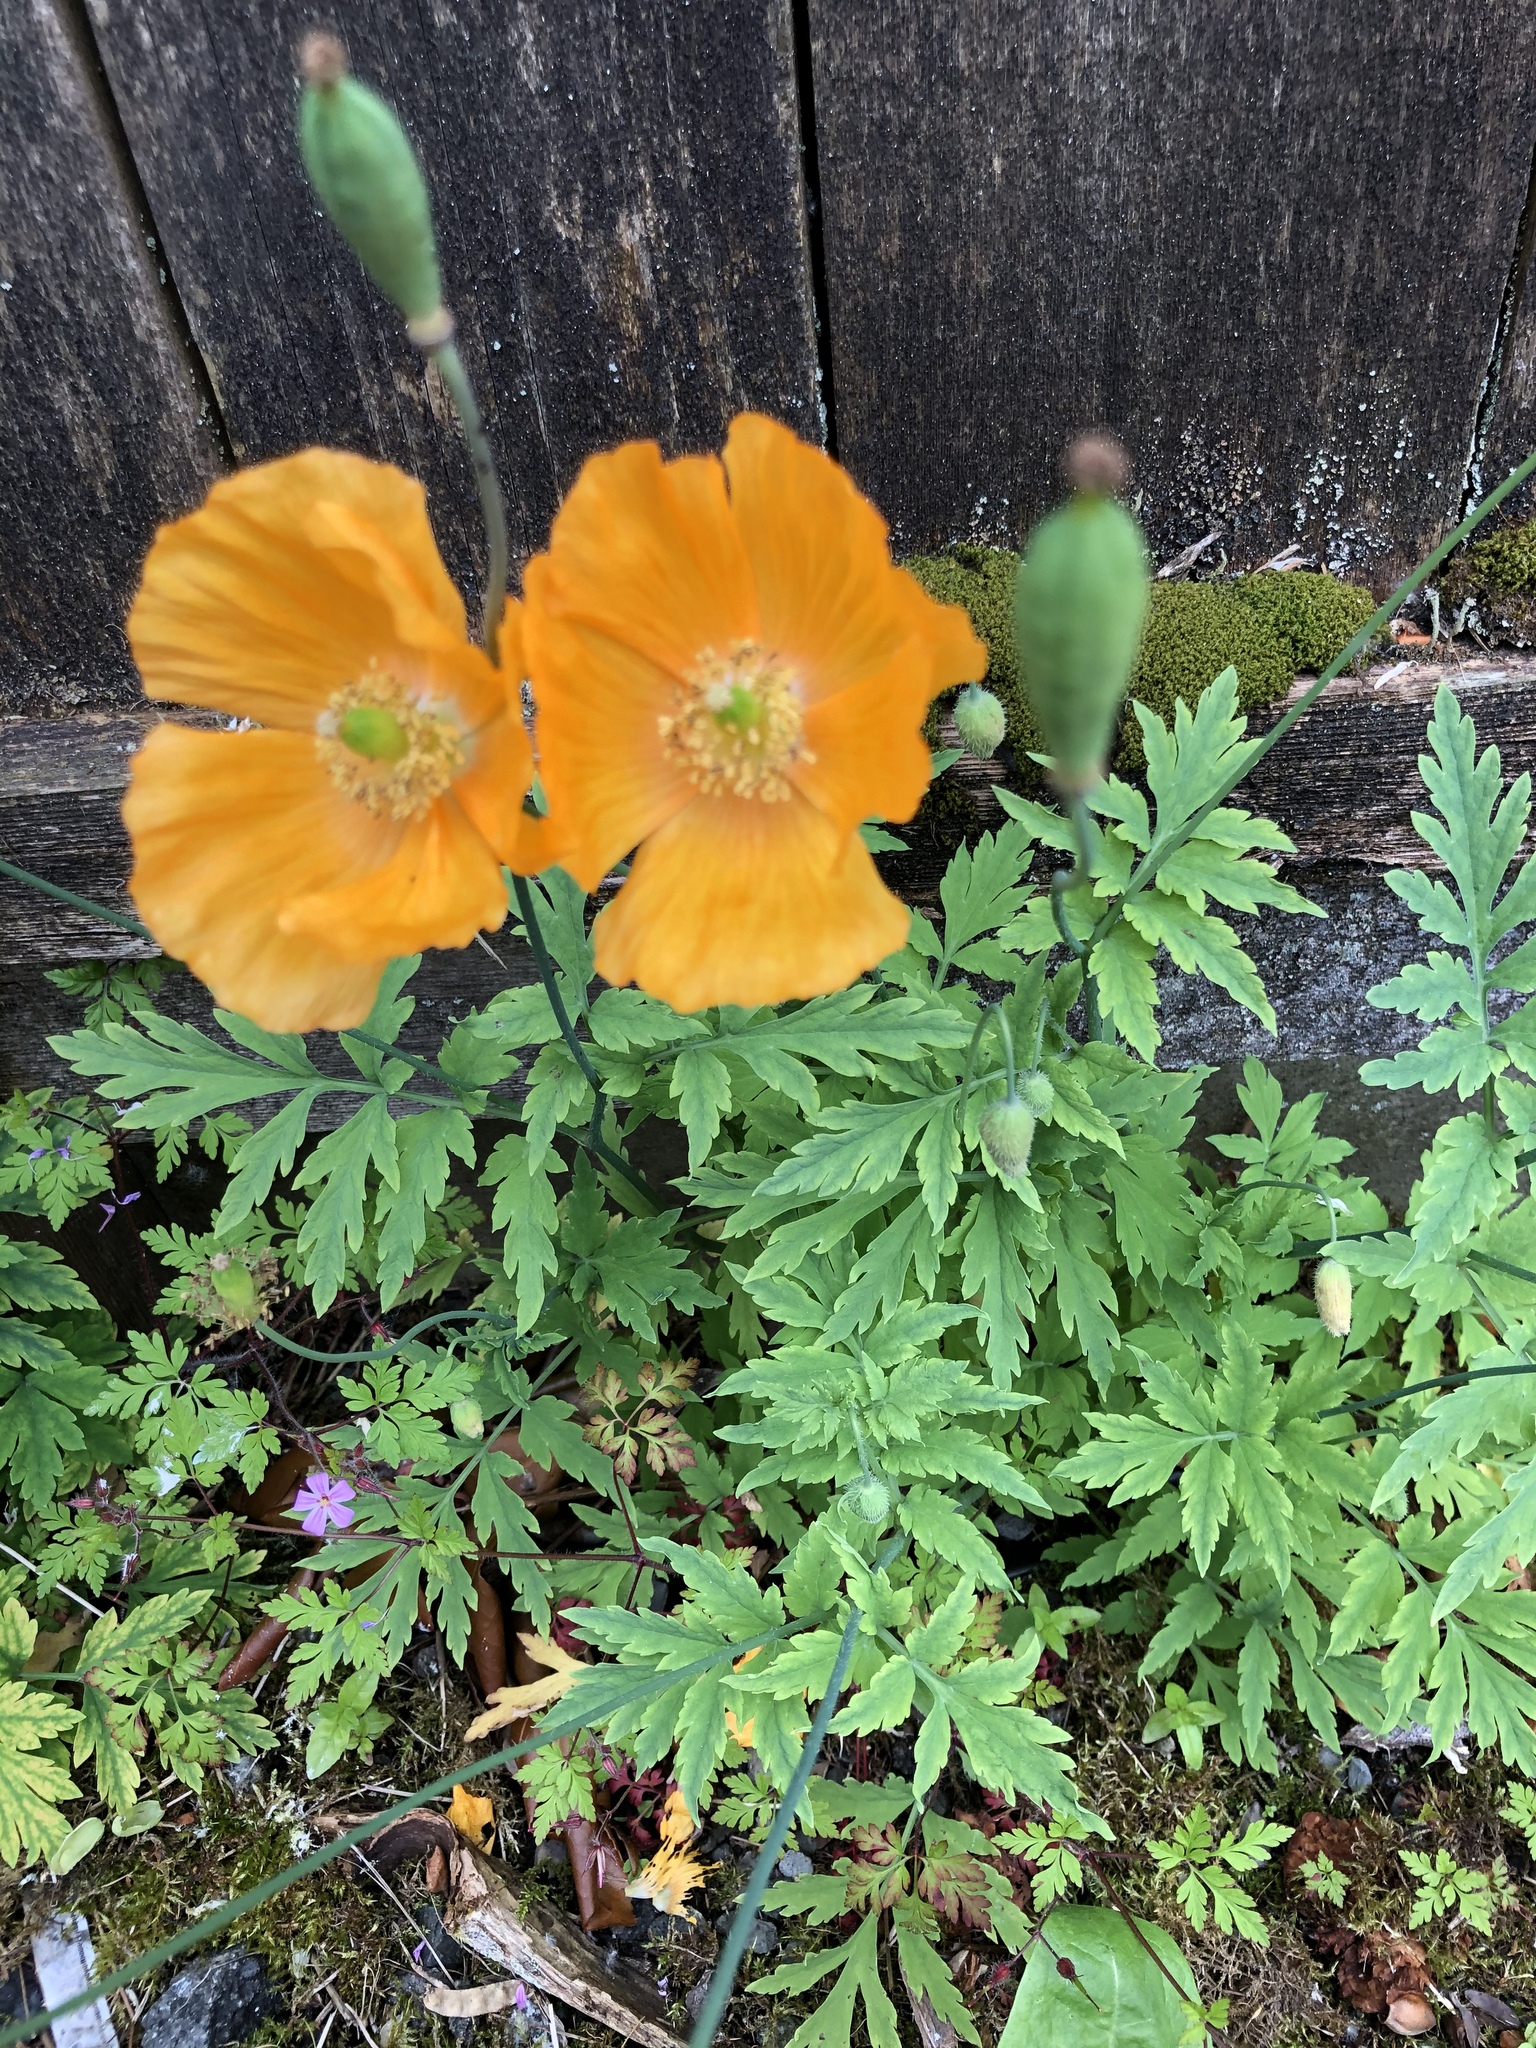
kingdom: Plantae
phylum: Tracheophyta
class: Magnoliopsida
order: Ranunculales
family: Papaveraceae
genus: Papaver
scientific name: Papaver cambricum
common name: Poppy
